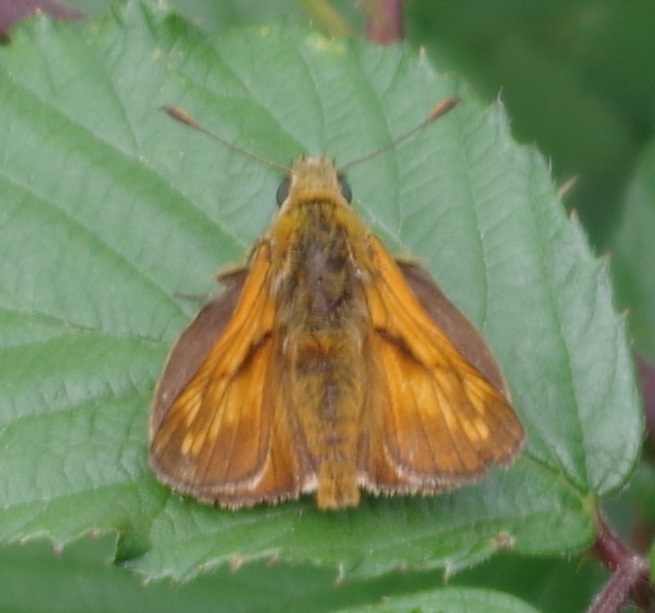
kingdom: Animalia
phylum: Arthropoda
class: Insecta
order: Lepidoptera
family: Hesperiidae
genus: Ochlodes
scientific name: Ochlodes venata
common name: Large skipper
